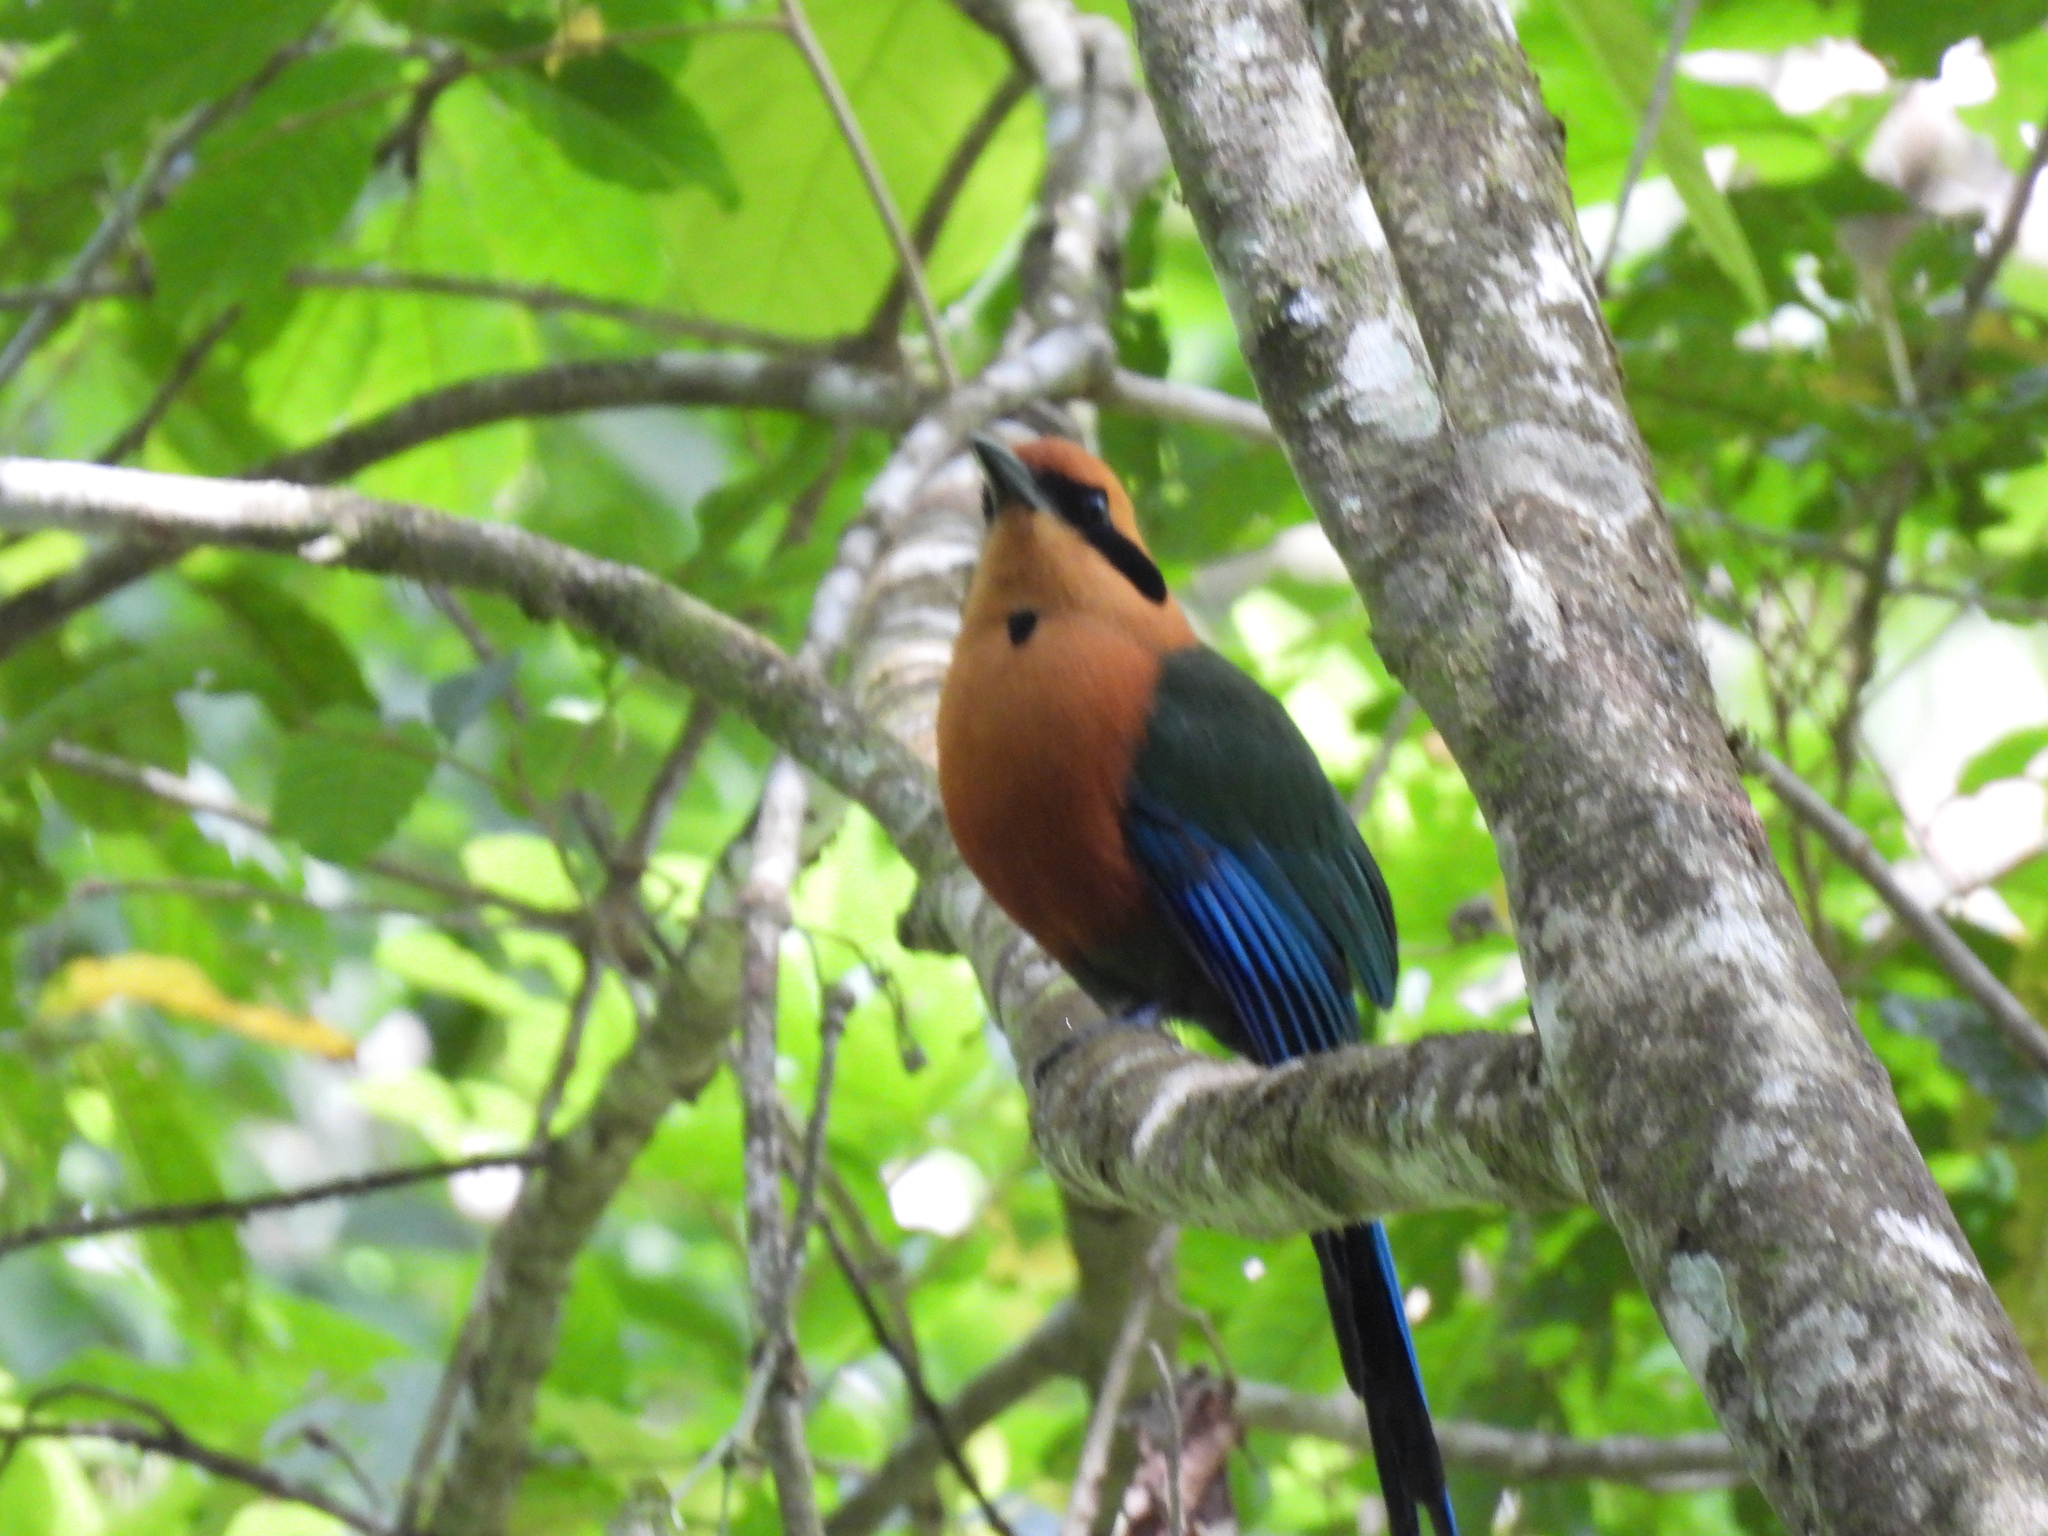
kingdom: Animalia
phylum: Chordata
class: Aves
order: Coraciiformes
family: Momotidae
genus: Baryphthengus
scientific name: Baryphthengus martii
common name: Rufous motmot
